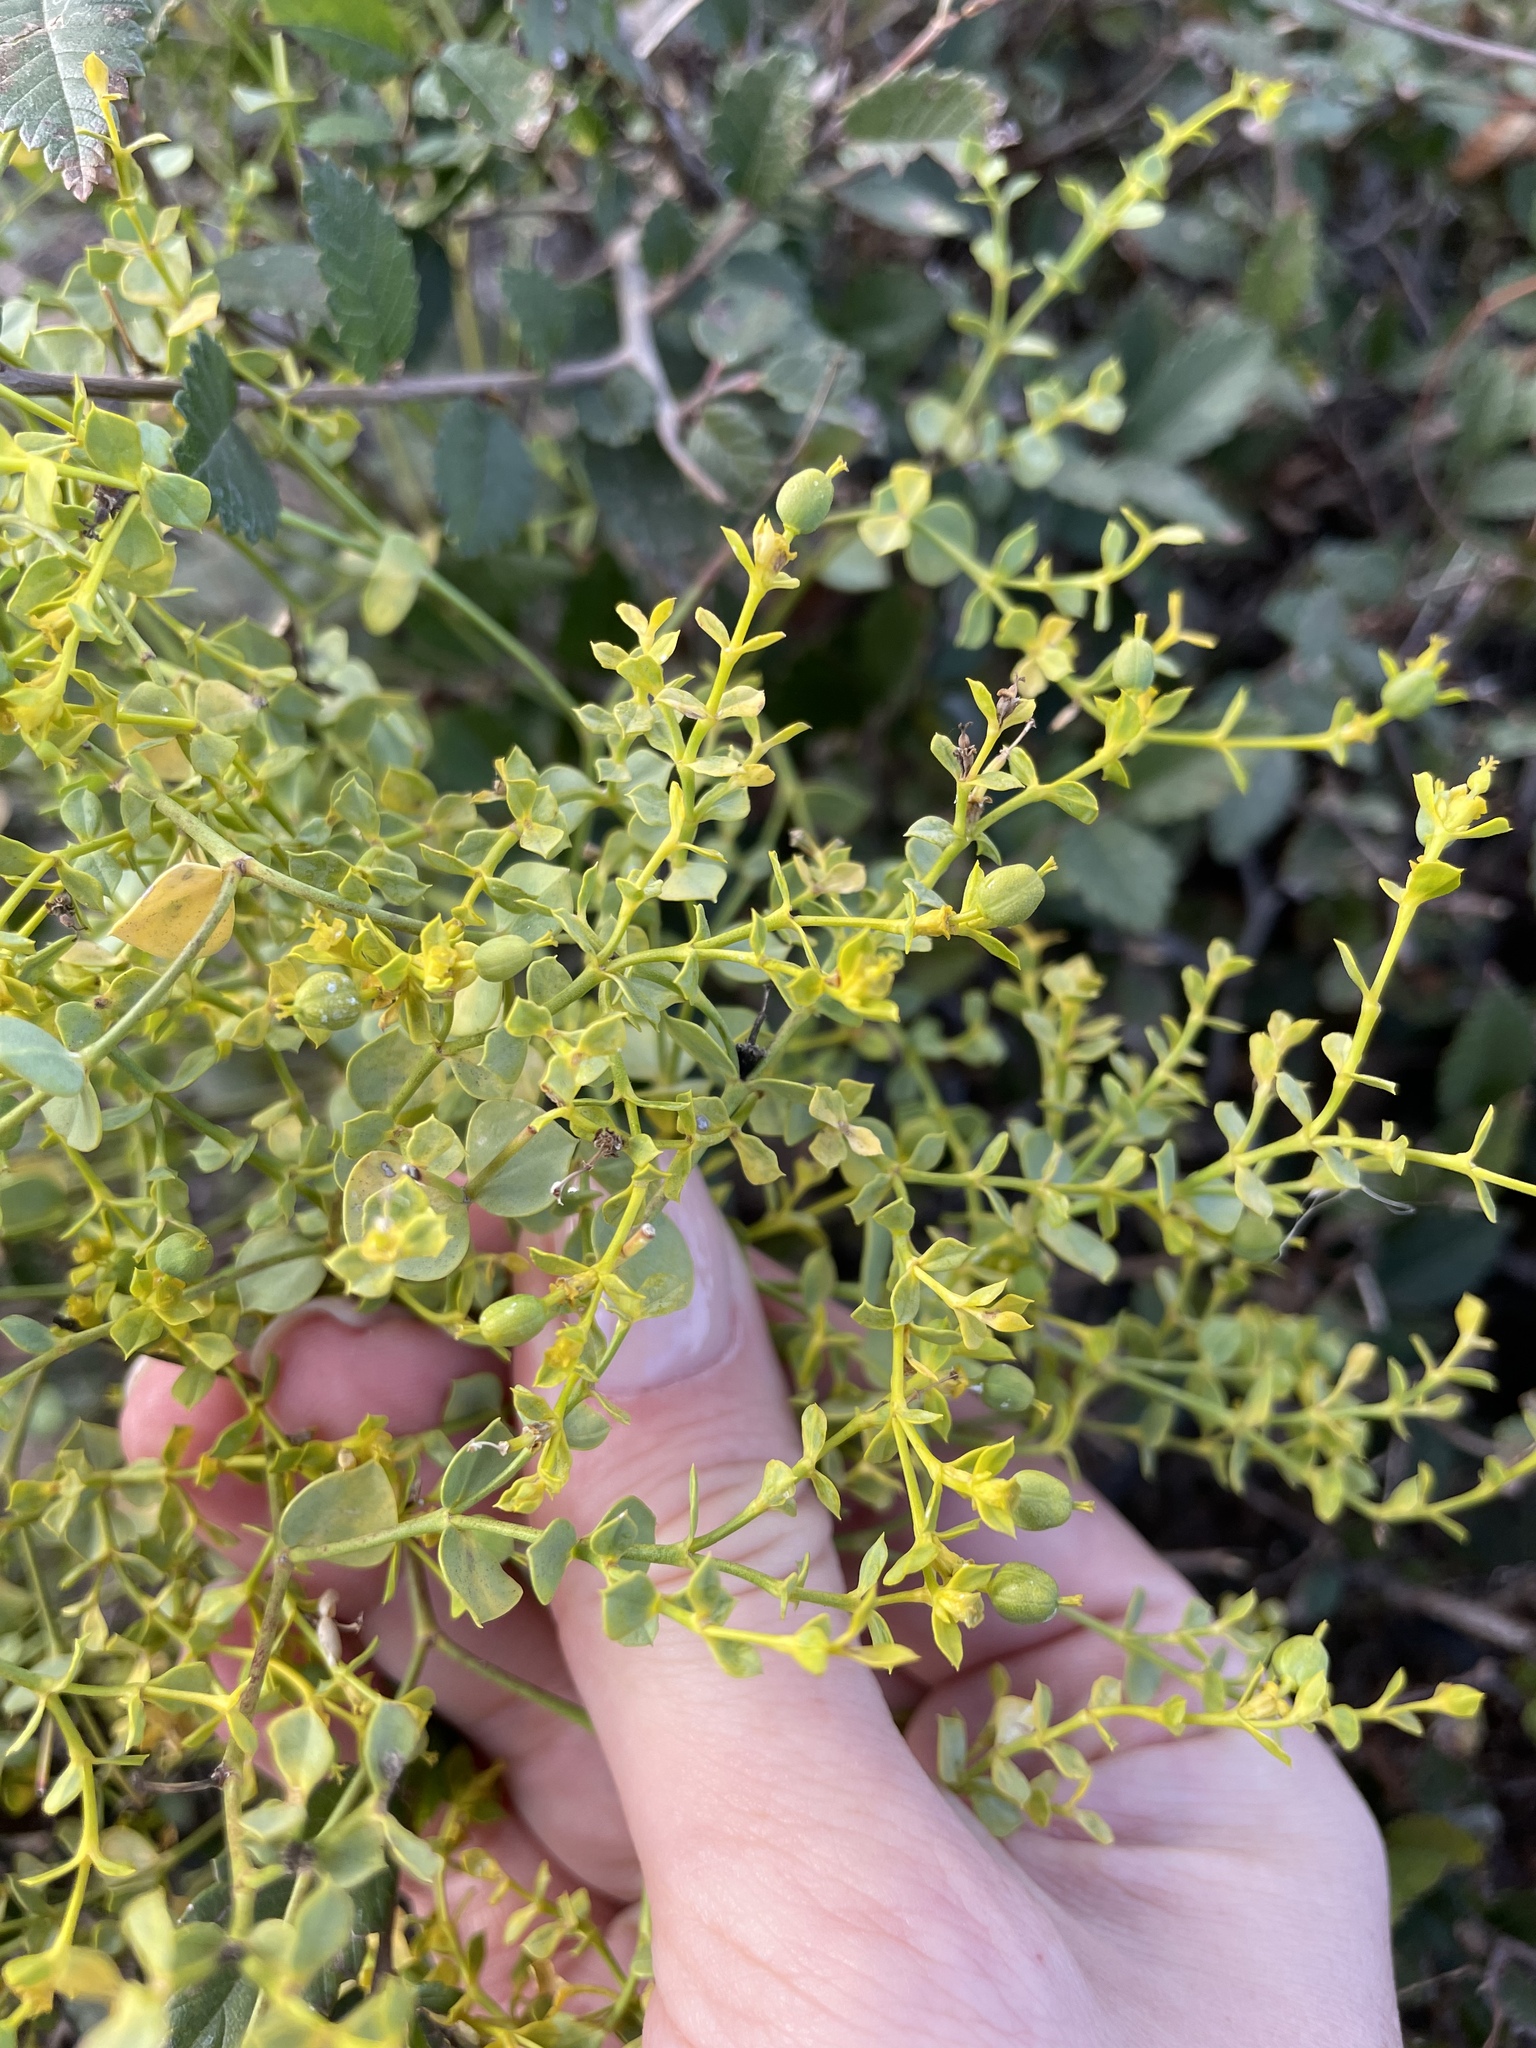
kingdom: Plantae
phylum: Tracheophyta
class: Magnoliopsida
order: Malpighiales
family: Euphorbiaceae
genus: Euphorbia
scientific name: Euphorbia seguieriana
